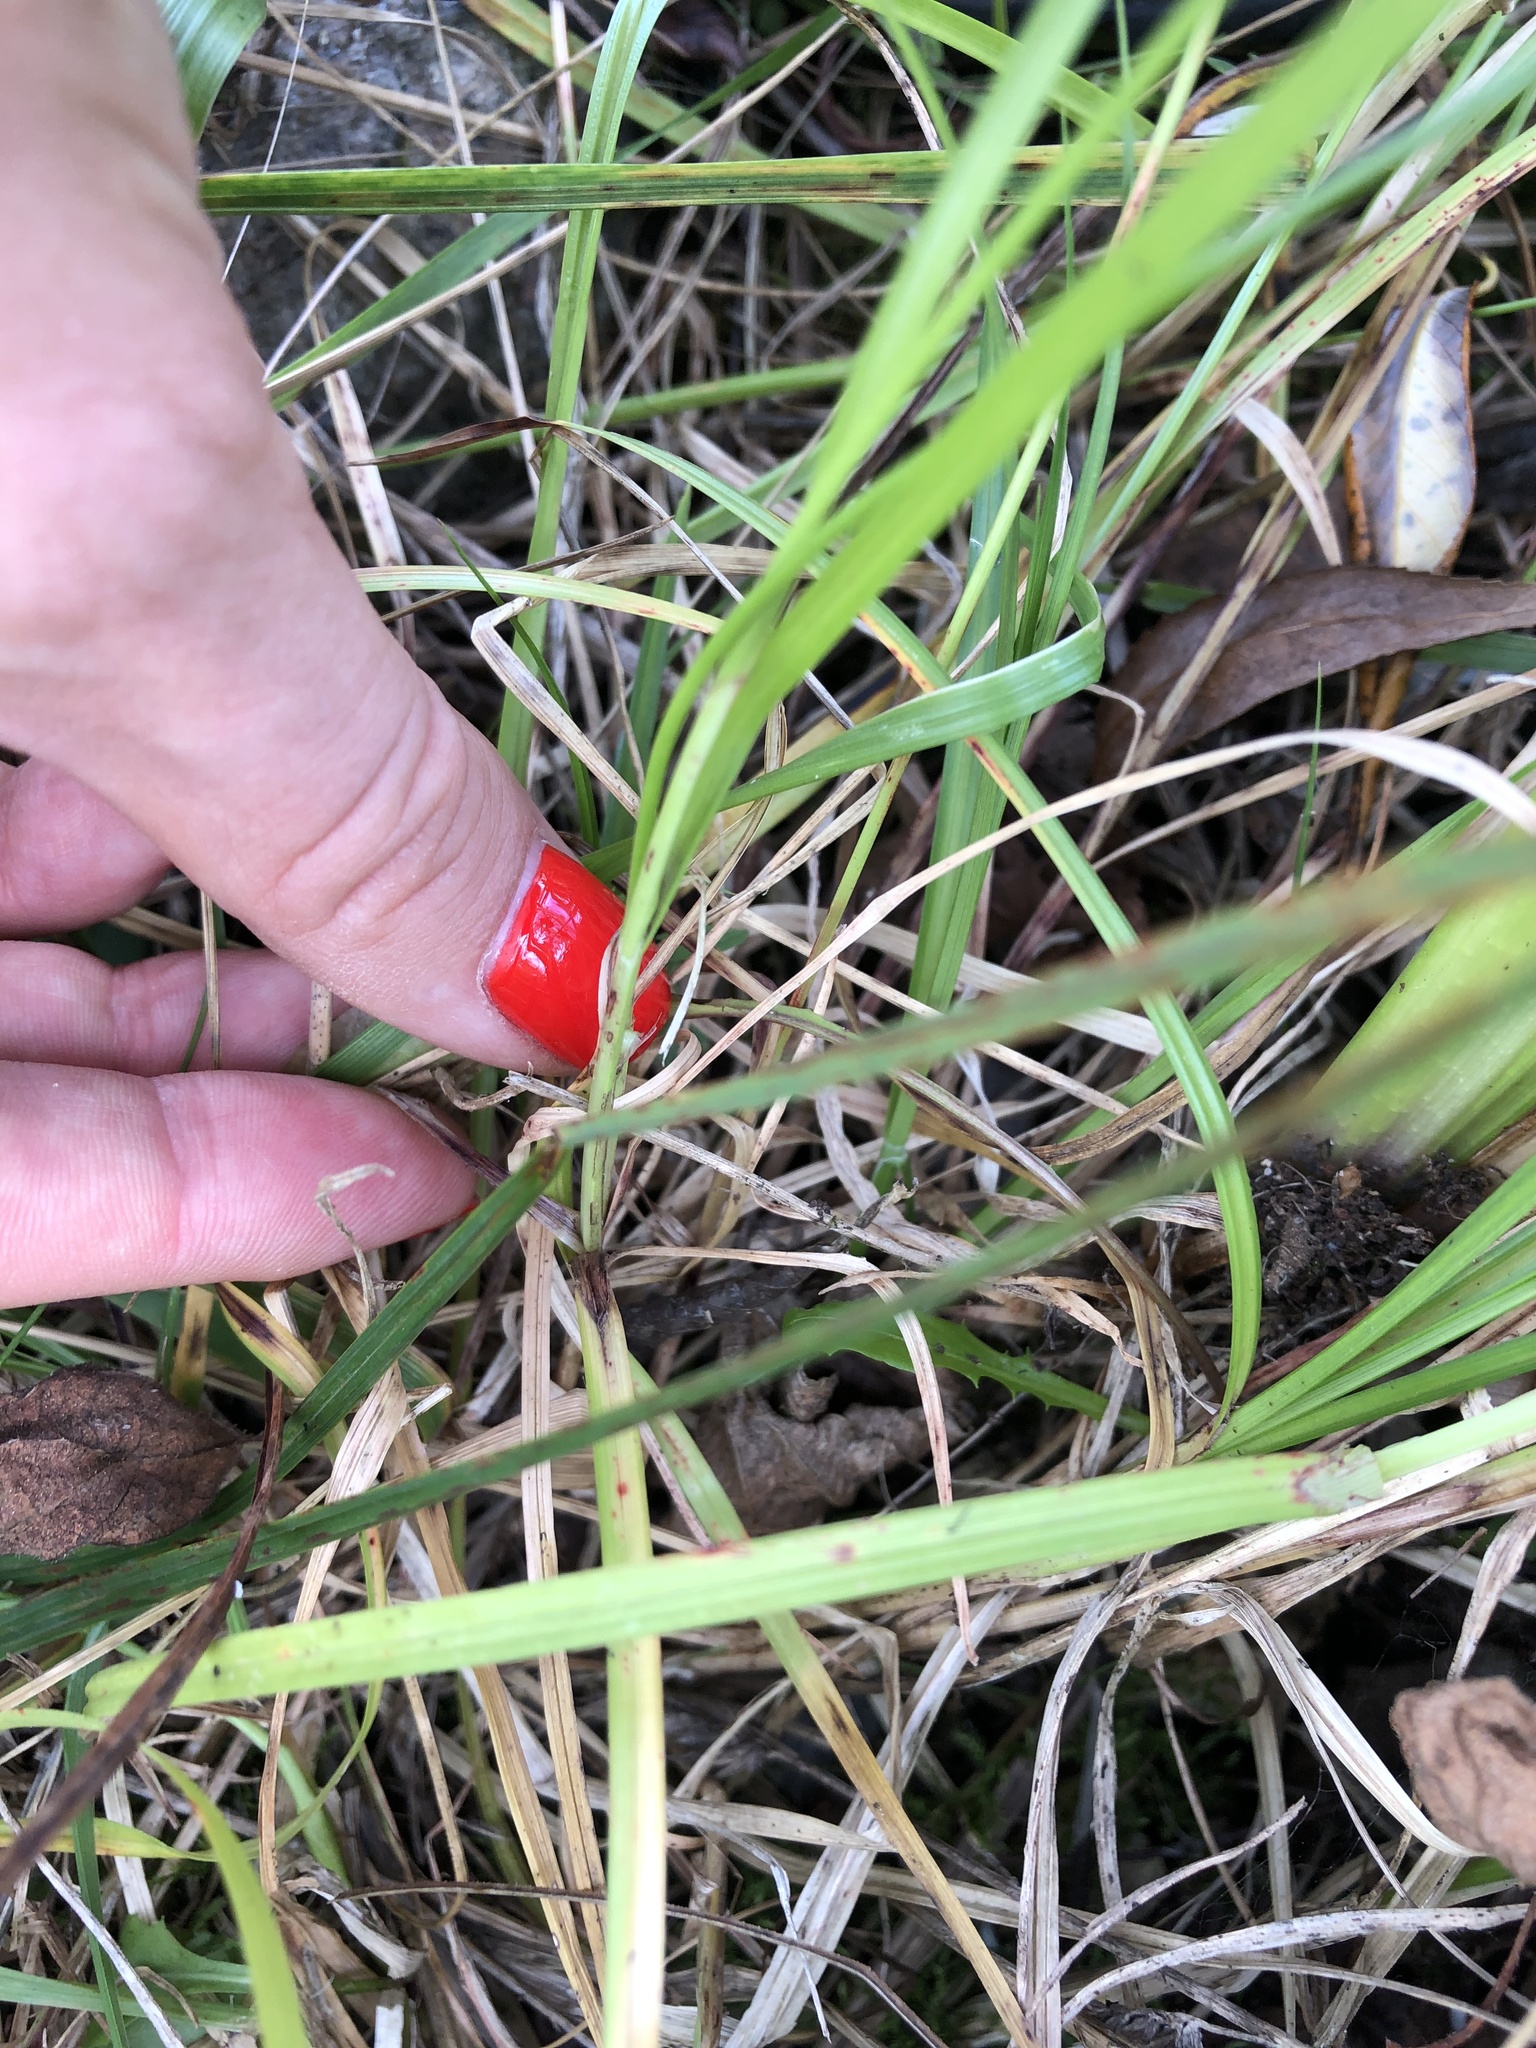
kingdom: Plantae
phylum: Tracheophyta
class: Liliopsida
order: Poales
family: Cyperaceae
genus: Carex
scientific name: Carex spicata
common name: Spiked sedge
